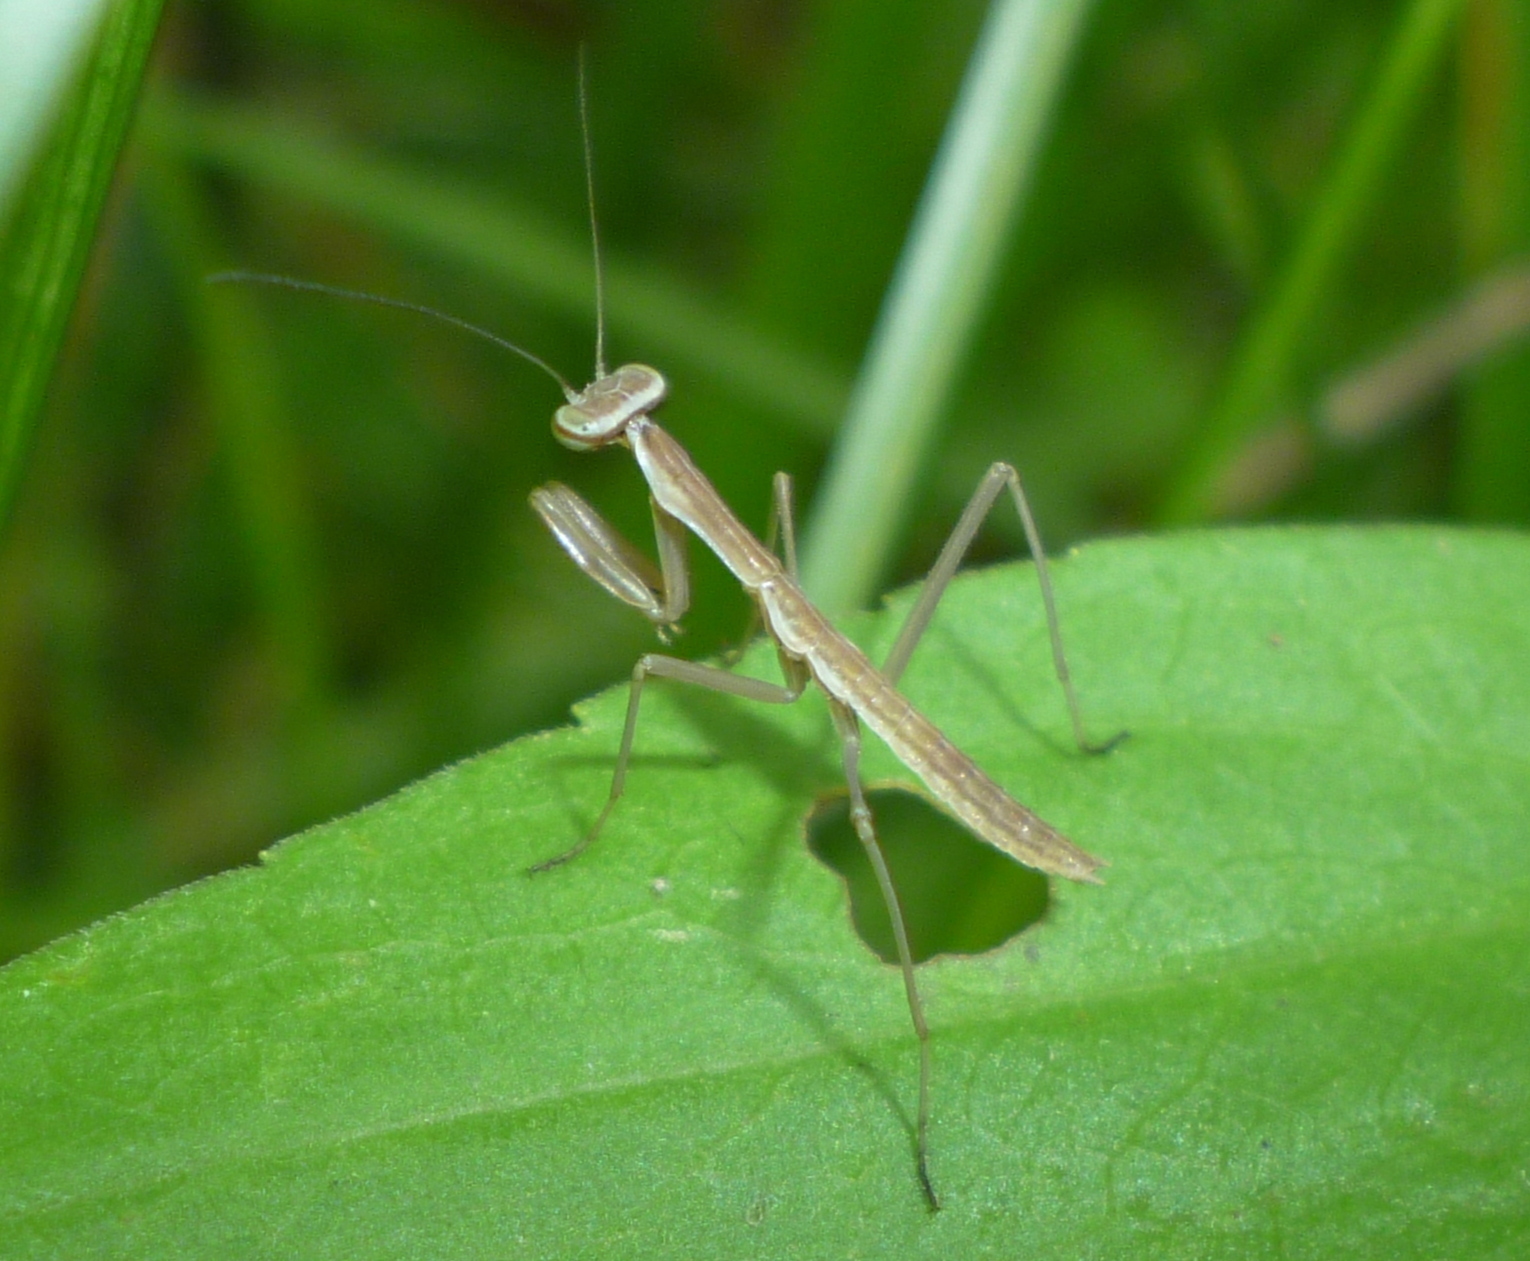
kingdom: Animalia
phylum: Arthropoda
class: Insecta
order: Mantodea
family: Mantidae
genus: Tenodera
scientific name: Tenodera sinensis
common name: Chinese mantis
